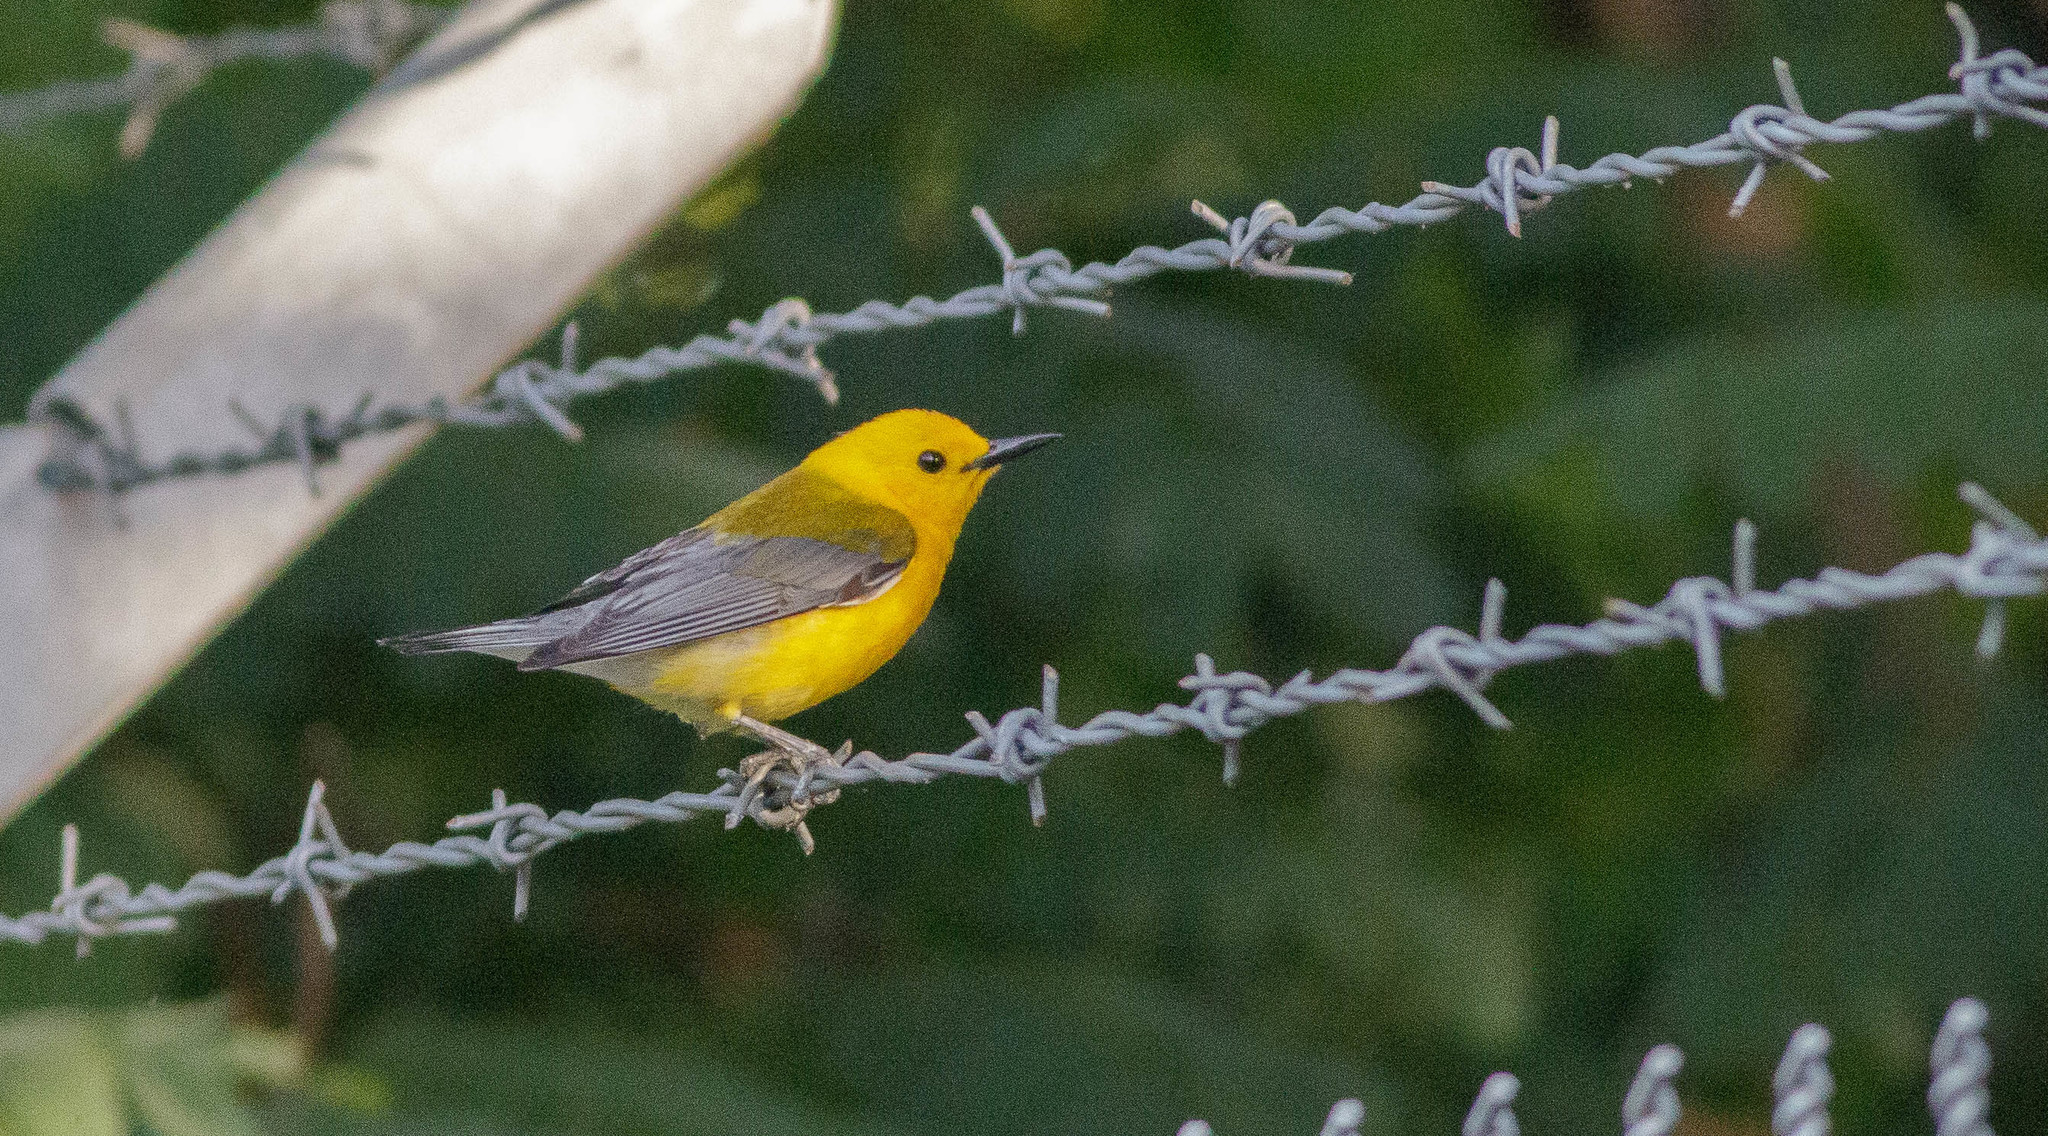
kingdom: Animalia
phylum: Chordata
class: Aves
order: Passeriformes
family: Parulidae
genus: Protonotaria
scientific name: Protonotaria citrea
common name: Prothonotary warbler
